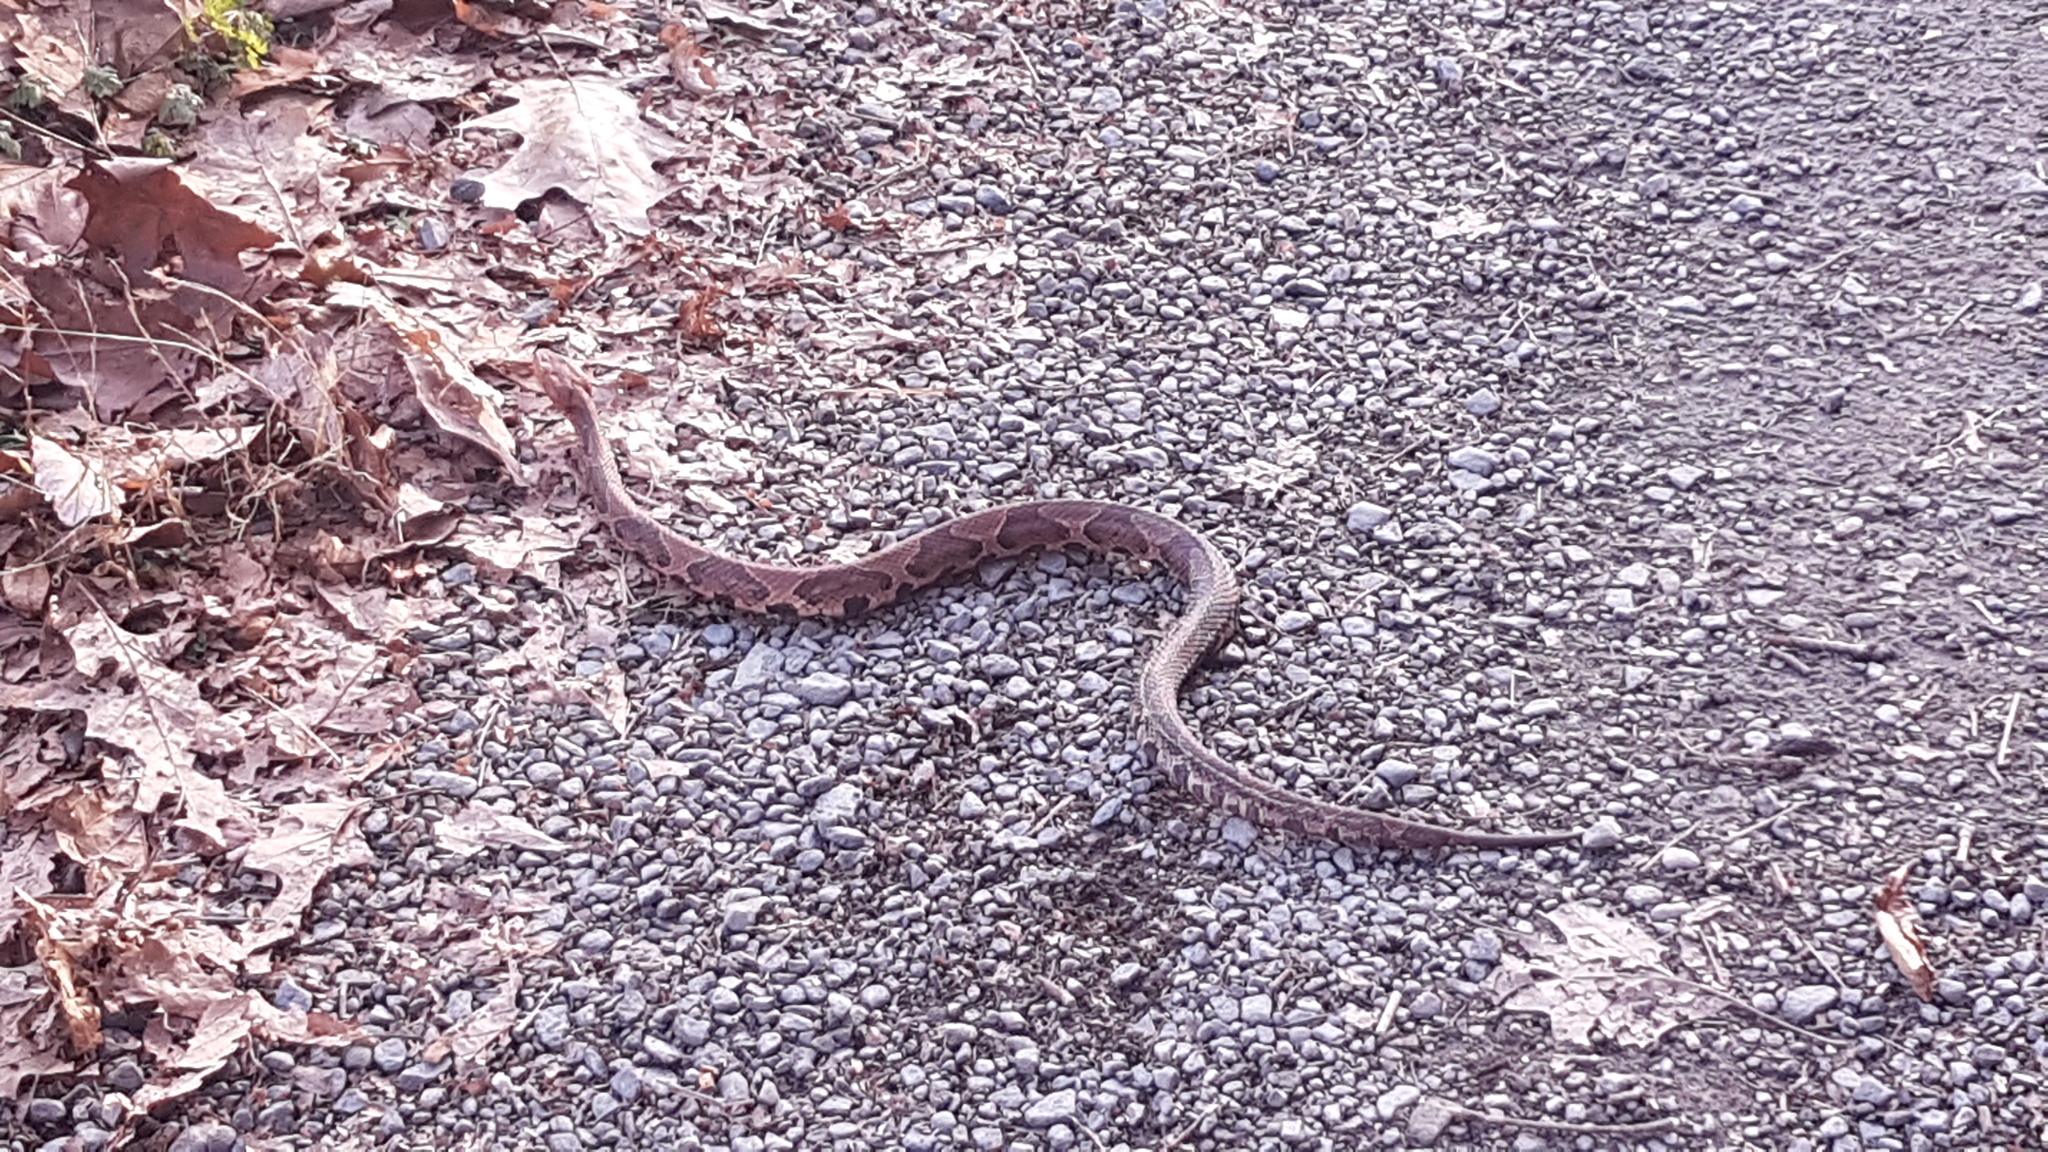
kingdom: Animalia
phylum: Chordata
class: Squamata
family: Viperidae
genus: Agkistrodon
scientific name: Agkistrodon contortrix
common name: Northern copperhead
